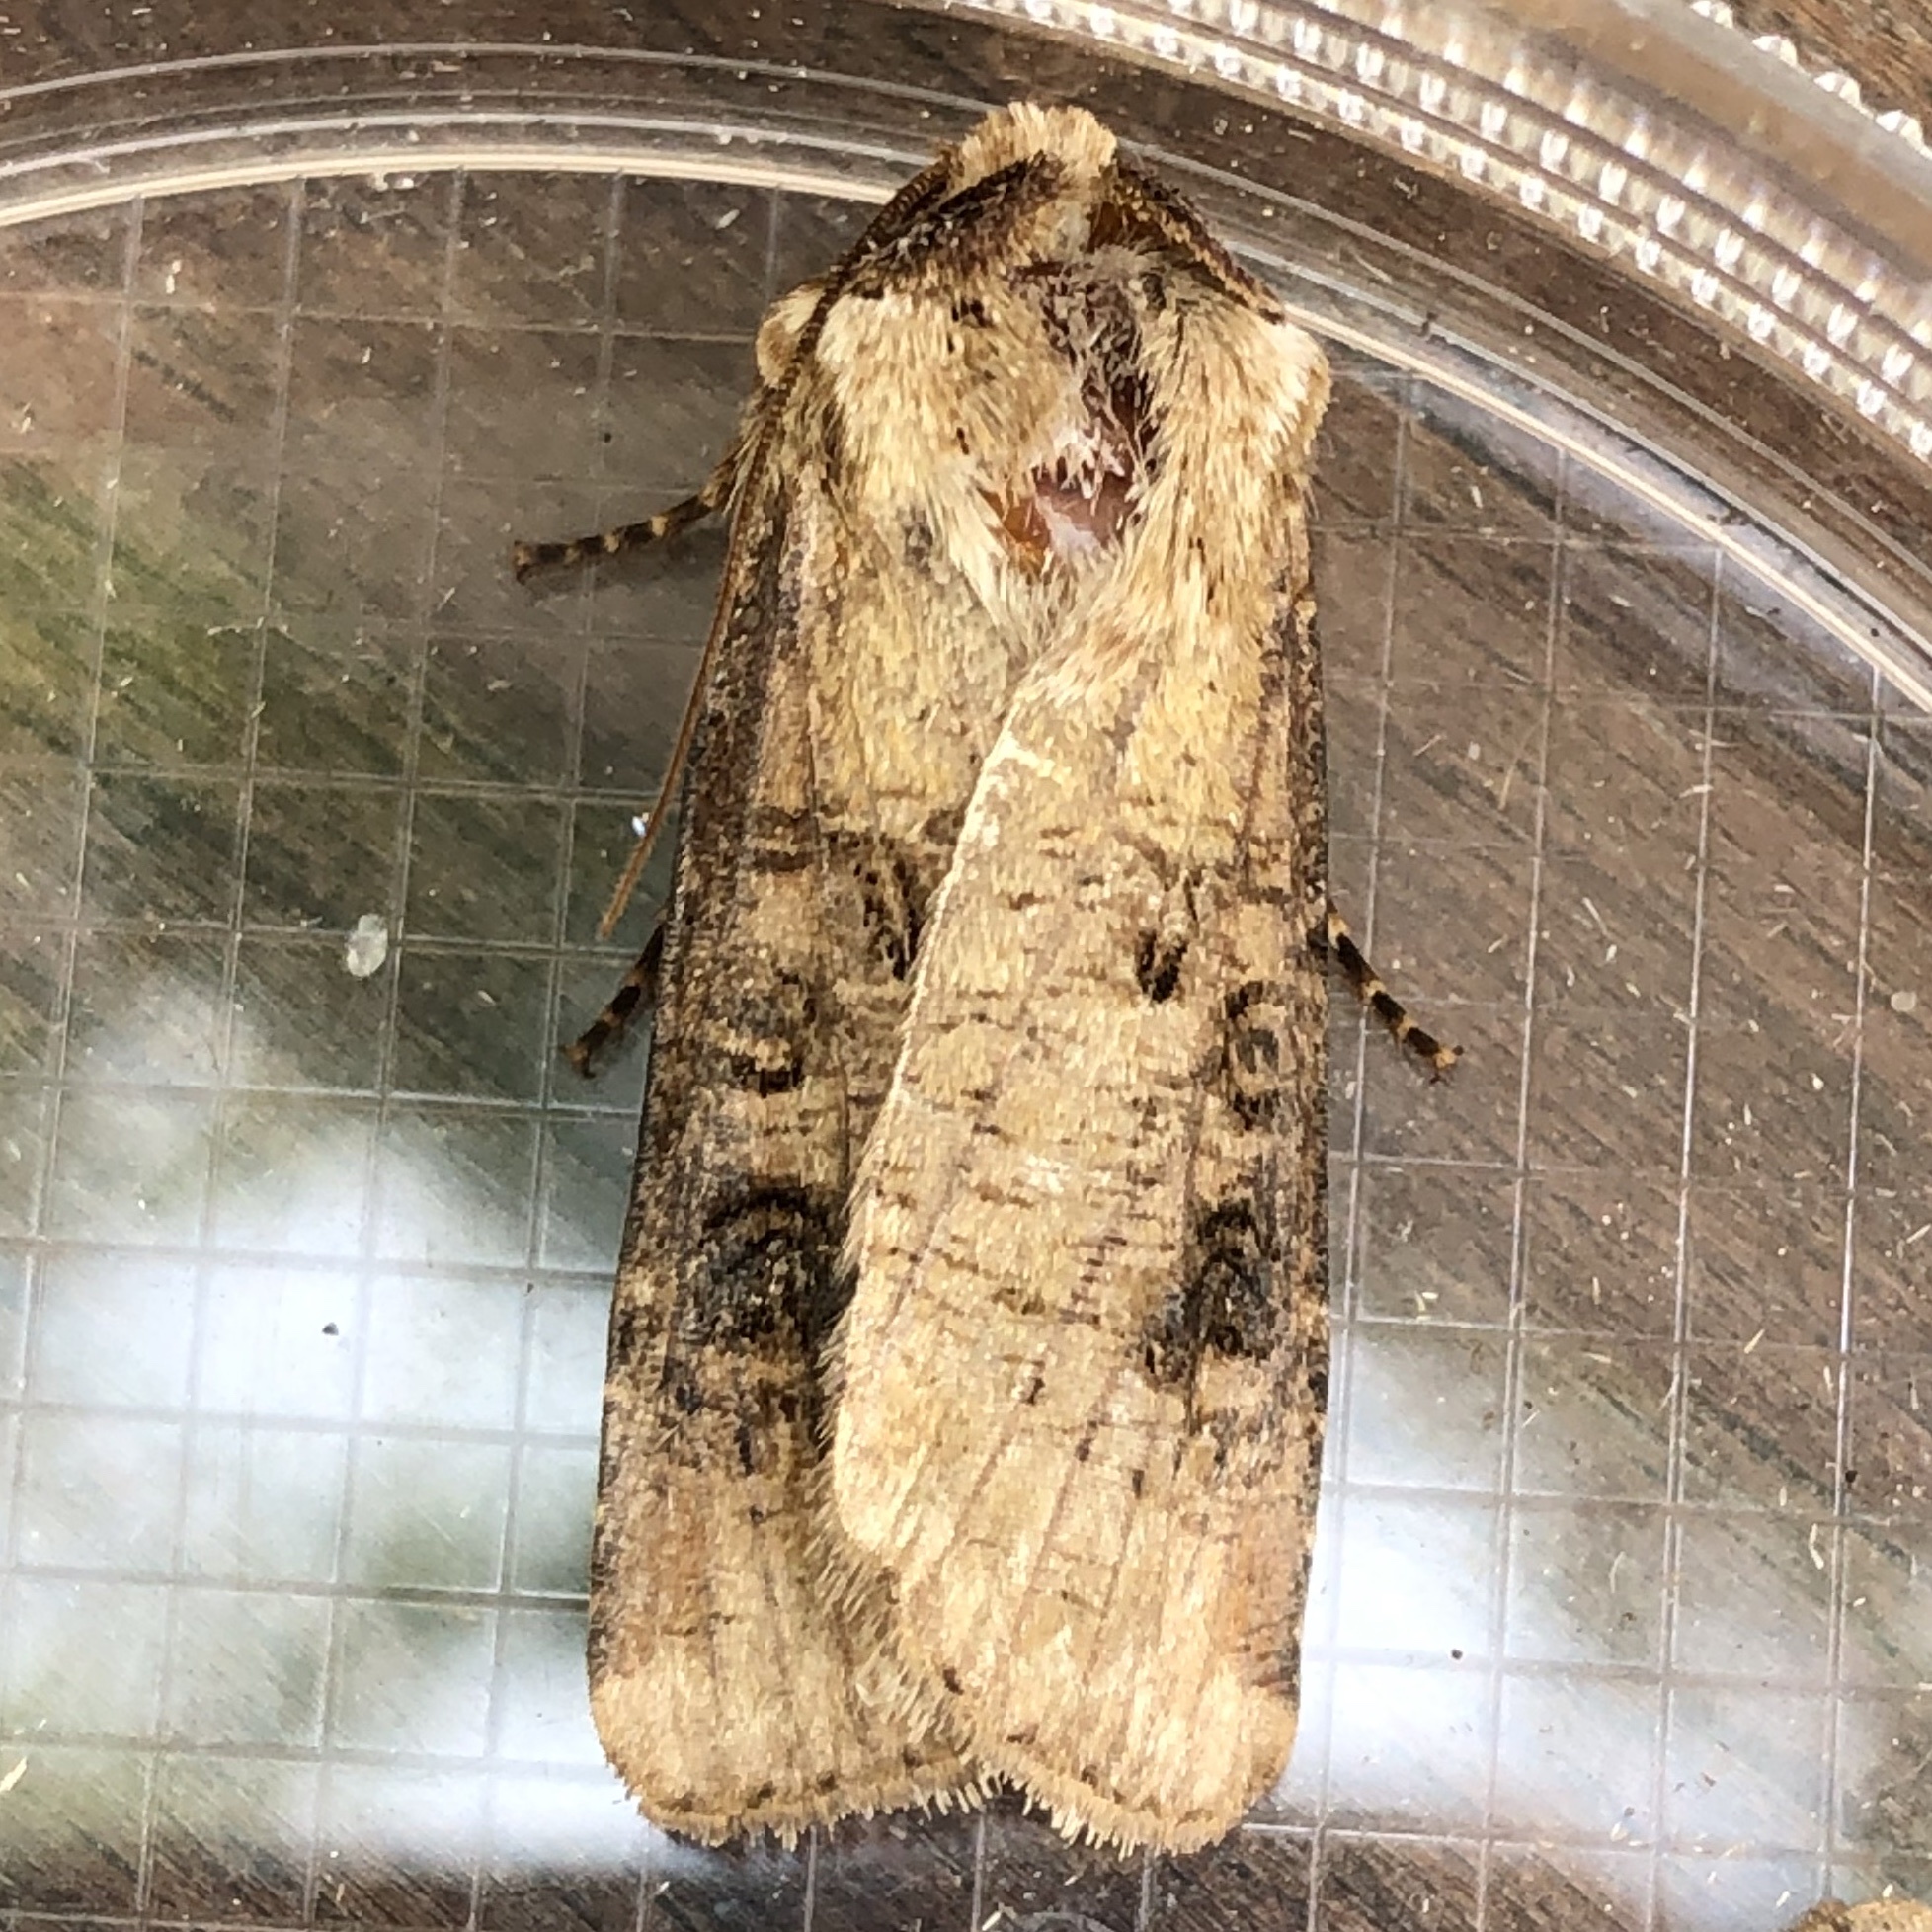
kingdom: Animalia
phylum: Arthropoda
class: Insecta
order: Lepidoptera
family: Noctuidae
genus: Agrotis
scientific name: Agrotis clavis
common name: Heart and club
